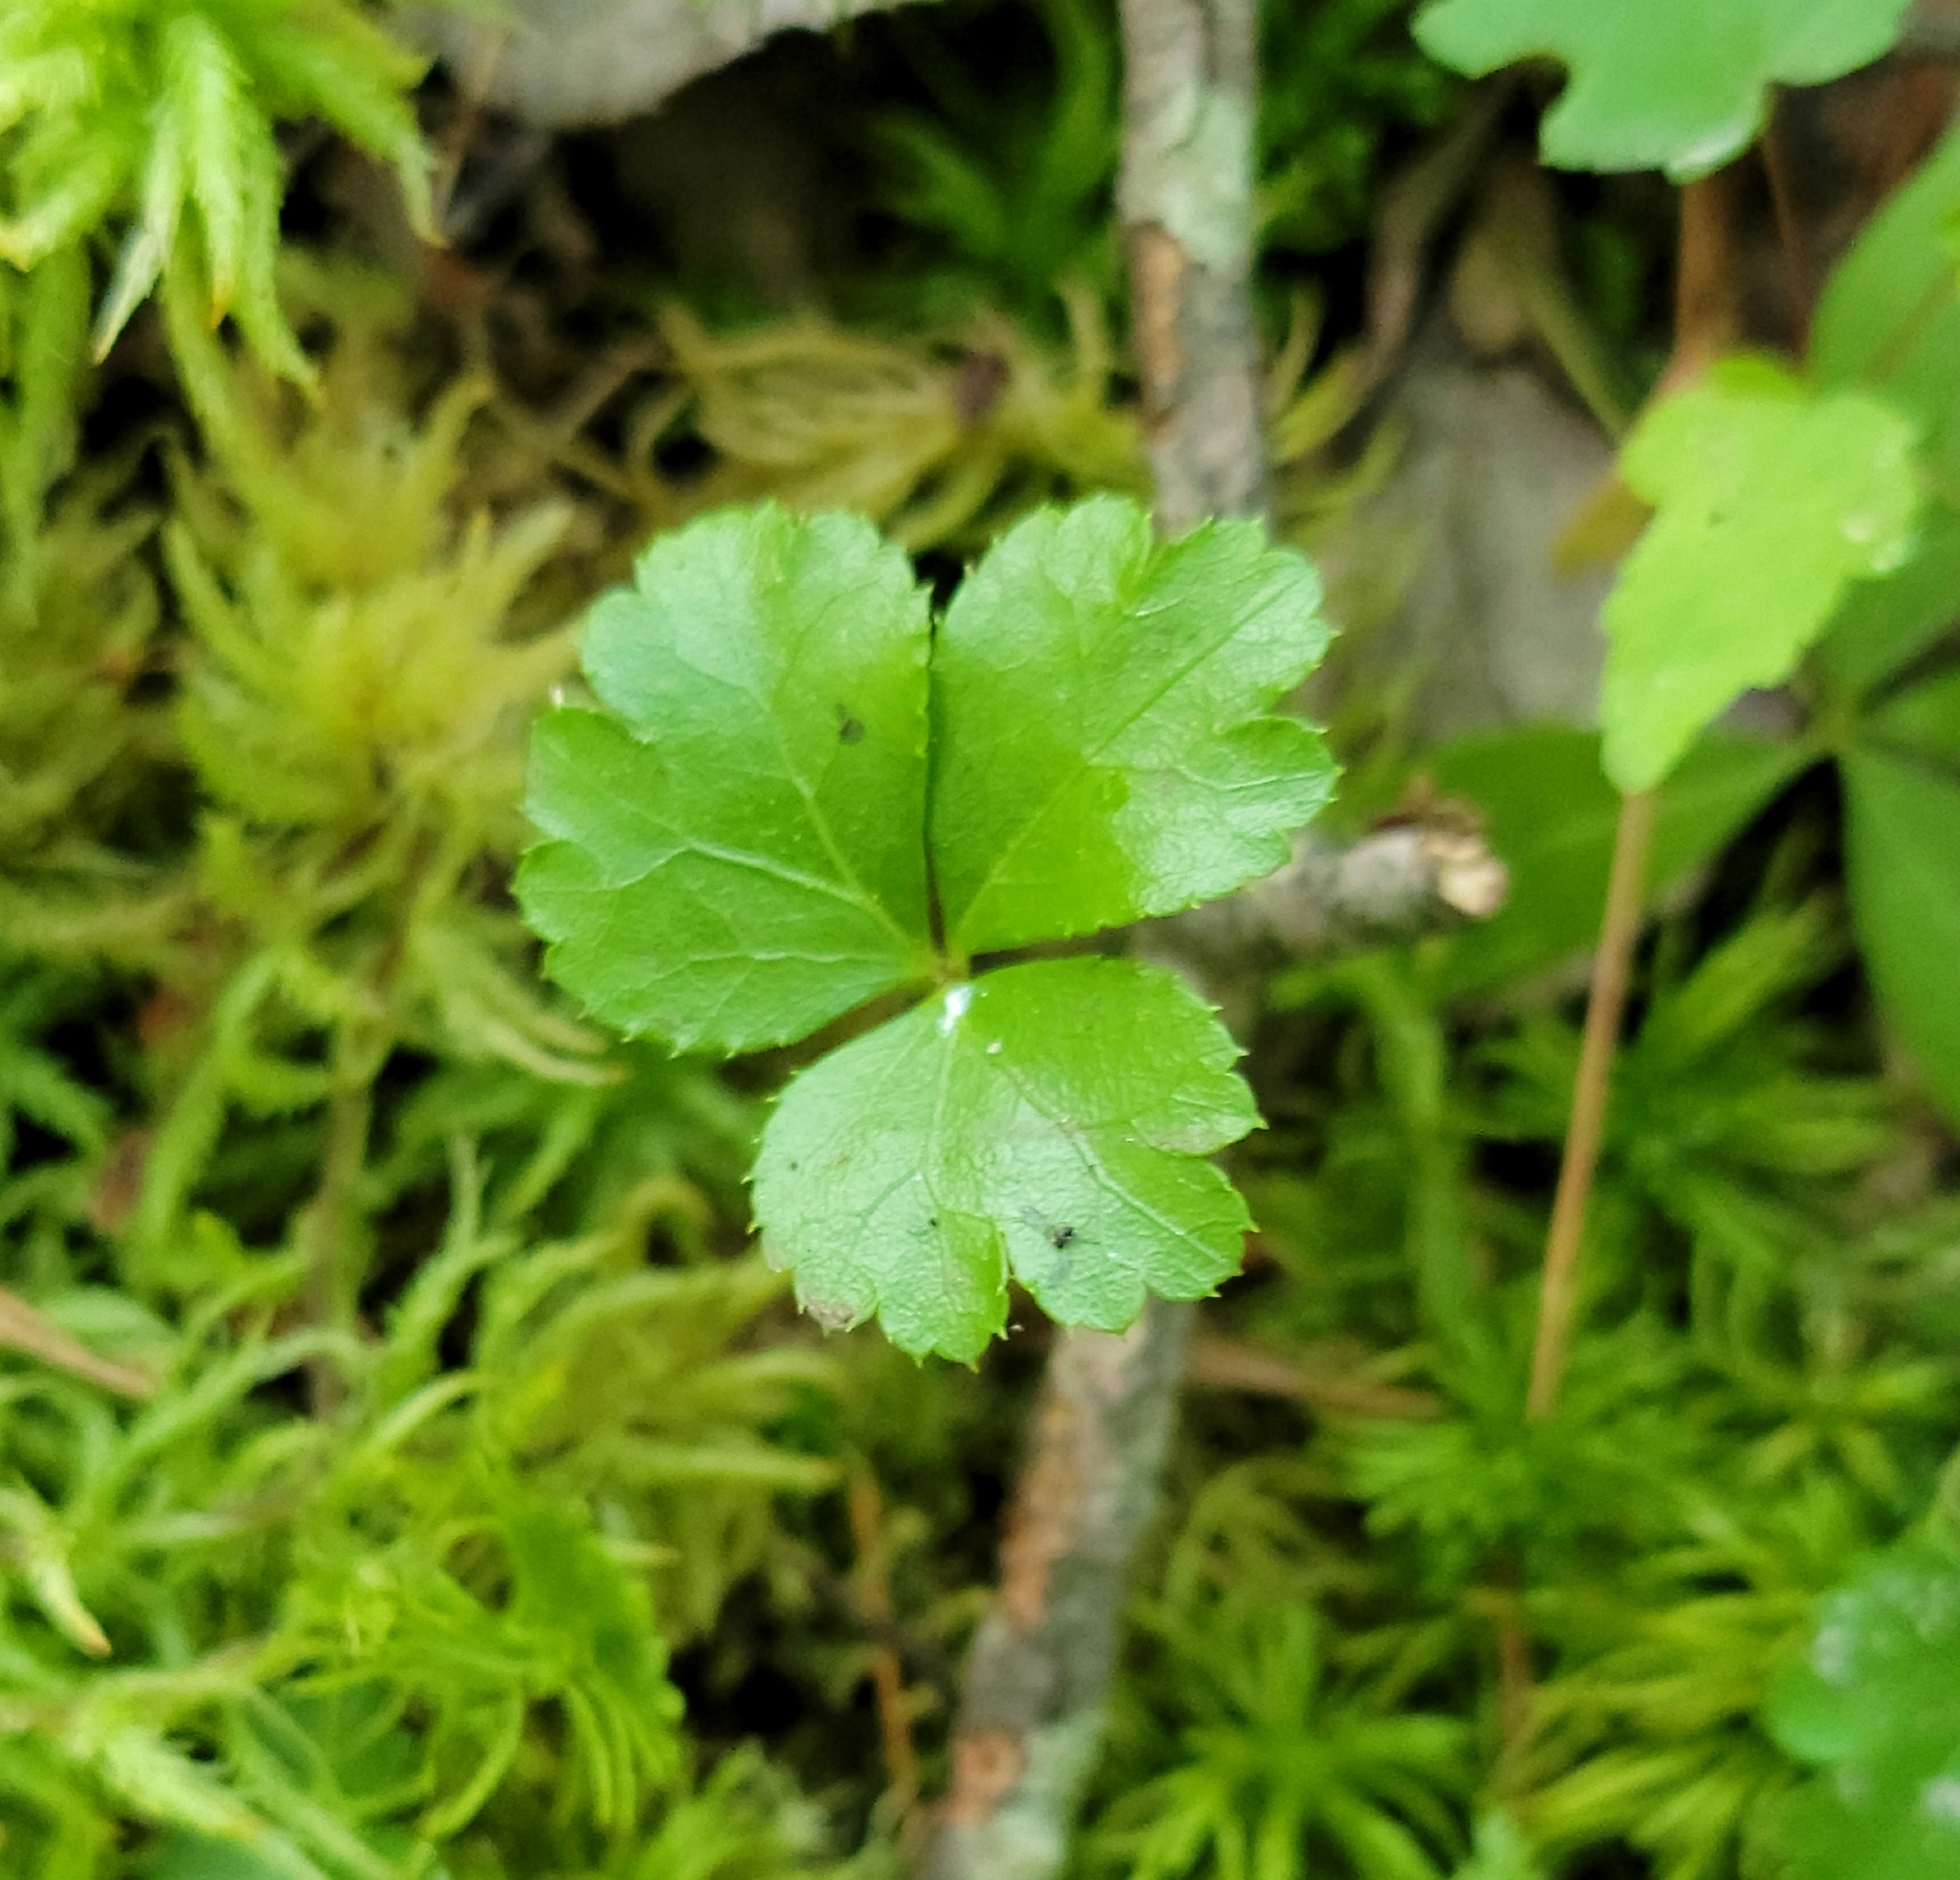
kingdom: Plantae
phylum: Tracheophyta
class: Magnoliopsida
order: Ranunculales
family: Ranunculaceae
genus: Coptis
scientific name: Coptis trifolia
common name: Canker-root
